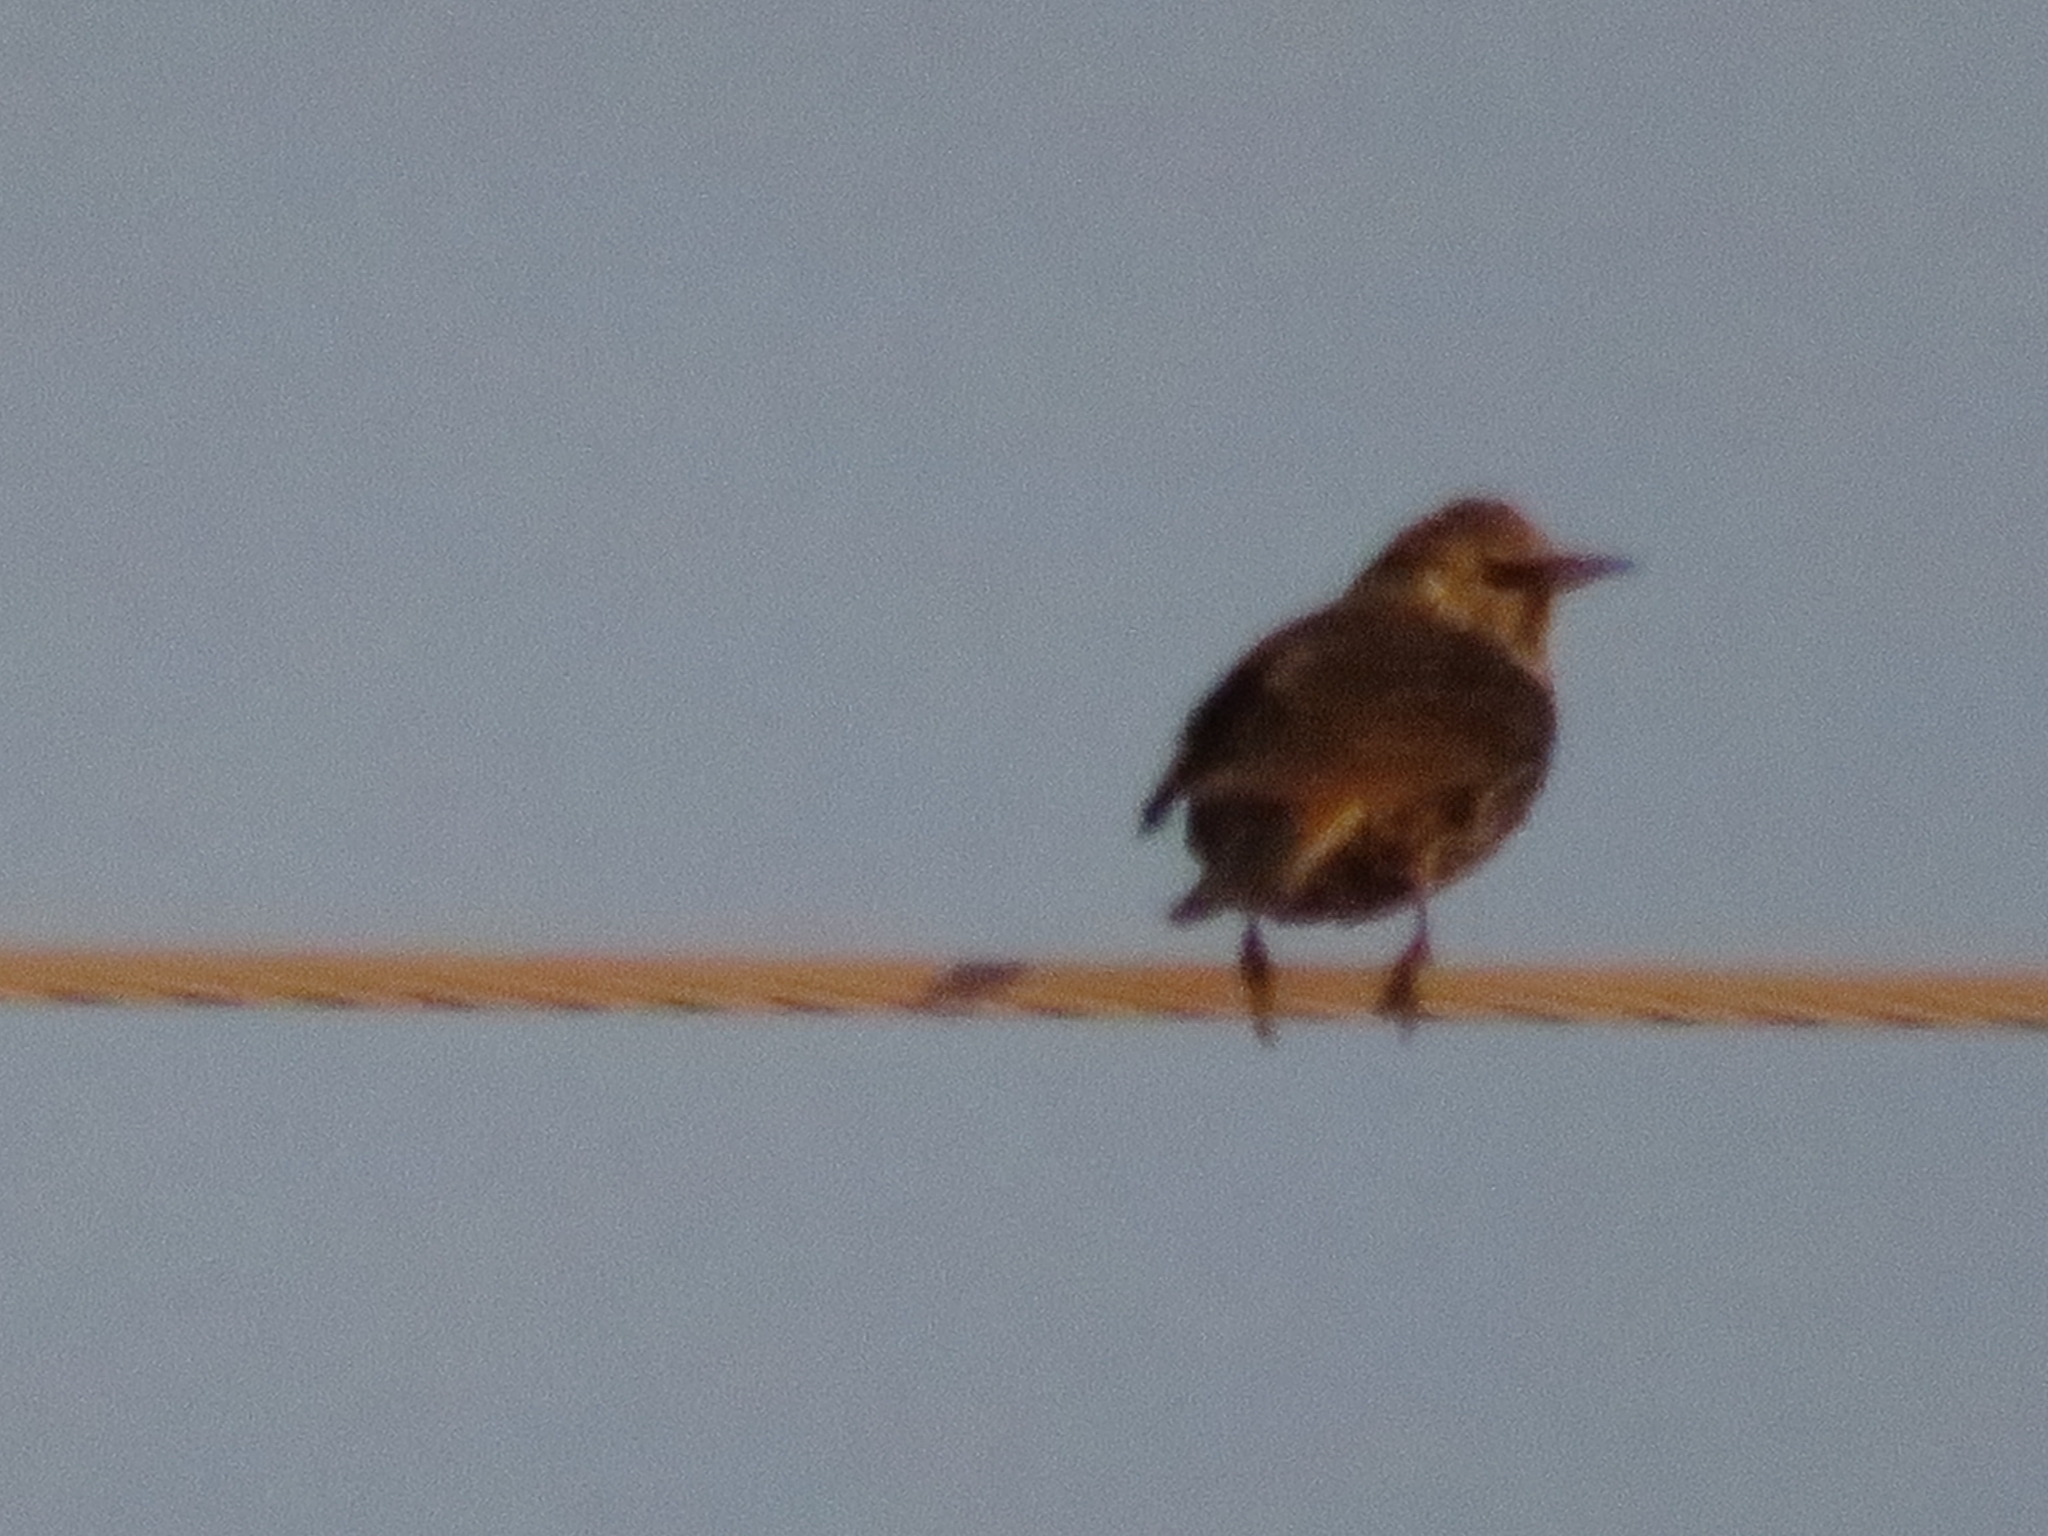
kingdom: Animalia
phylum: Chordata
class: Aves
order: Passeriformes
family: Sturnidae
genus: Sturnus
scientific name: Sturnus vulgaris
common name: Common starling
